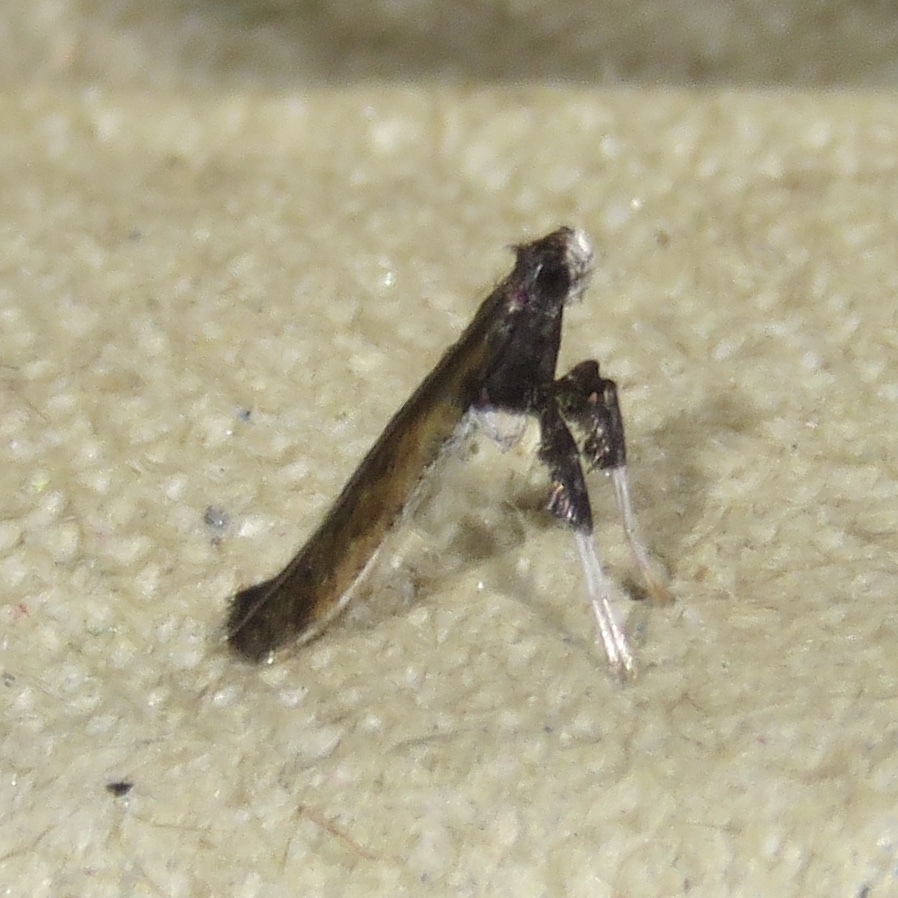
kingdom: Animalia
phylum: Arthropoda
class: Insecta
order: Lepidoptera
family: Gracillariidae
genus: Caloptilia
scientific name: Caloptilia rhoifoliella
